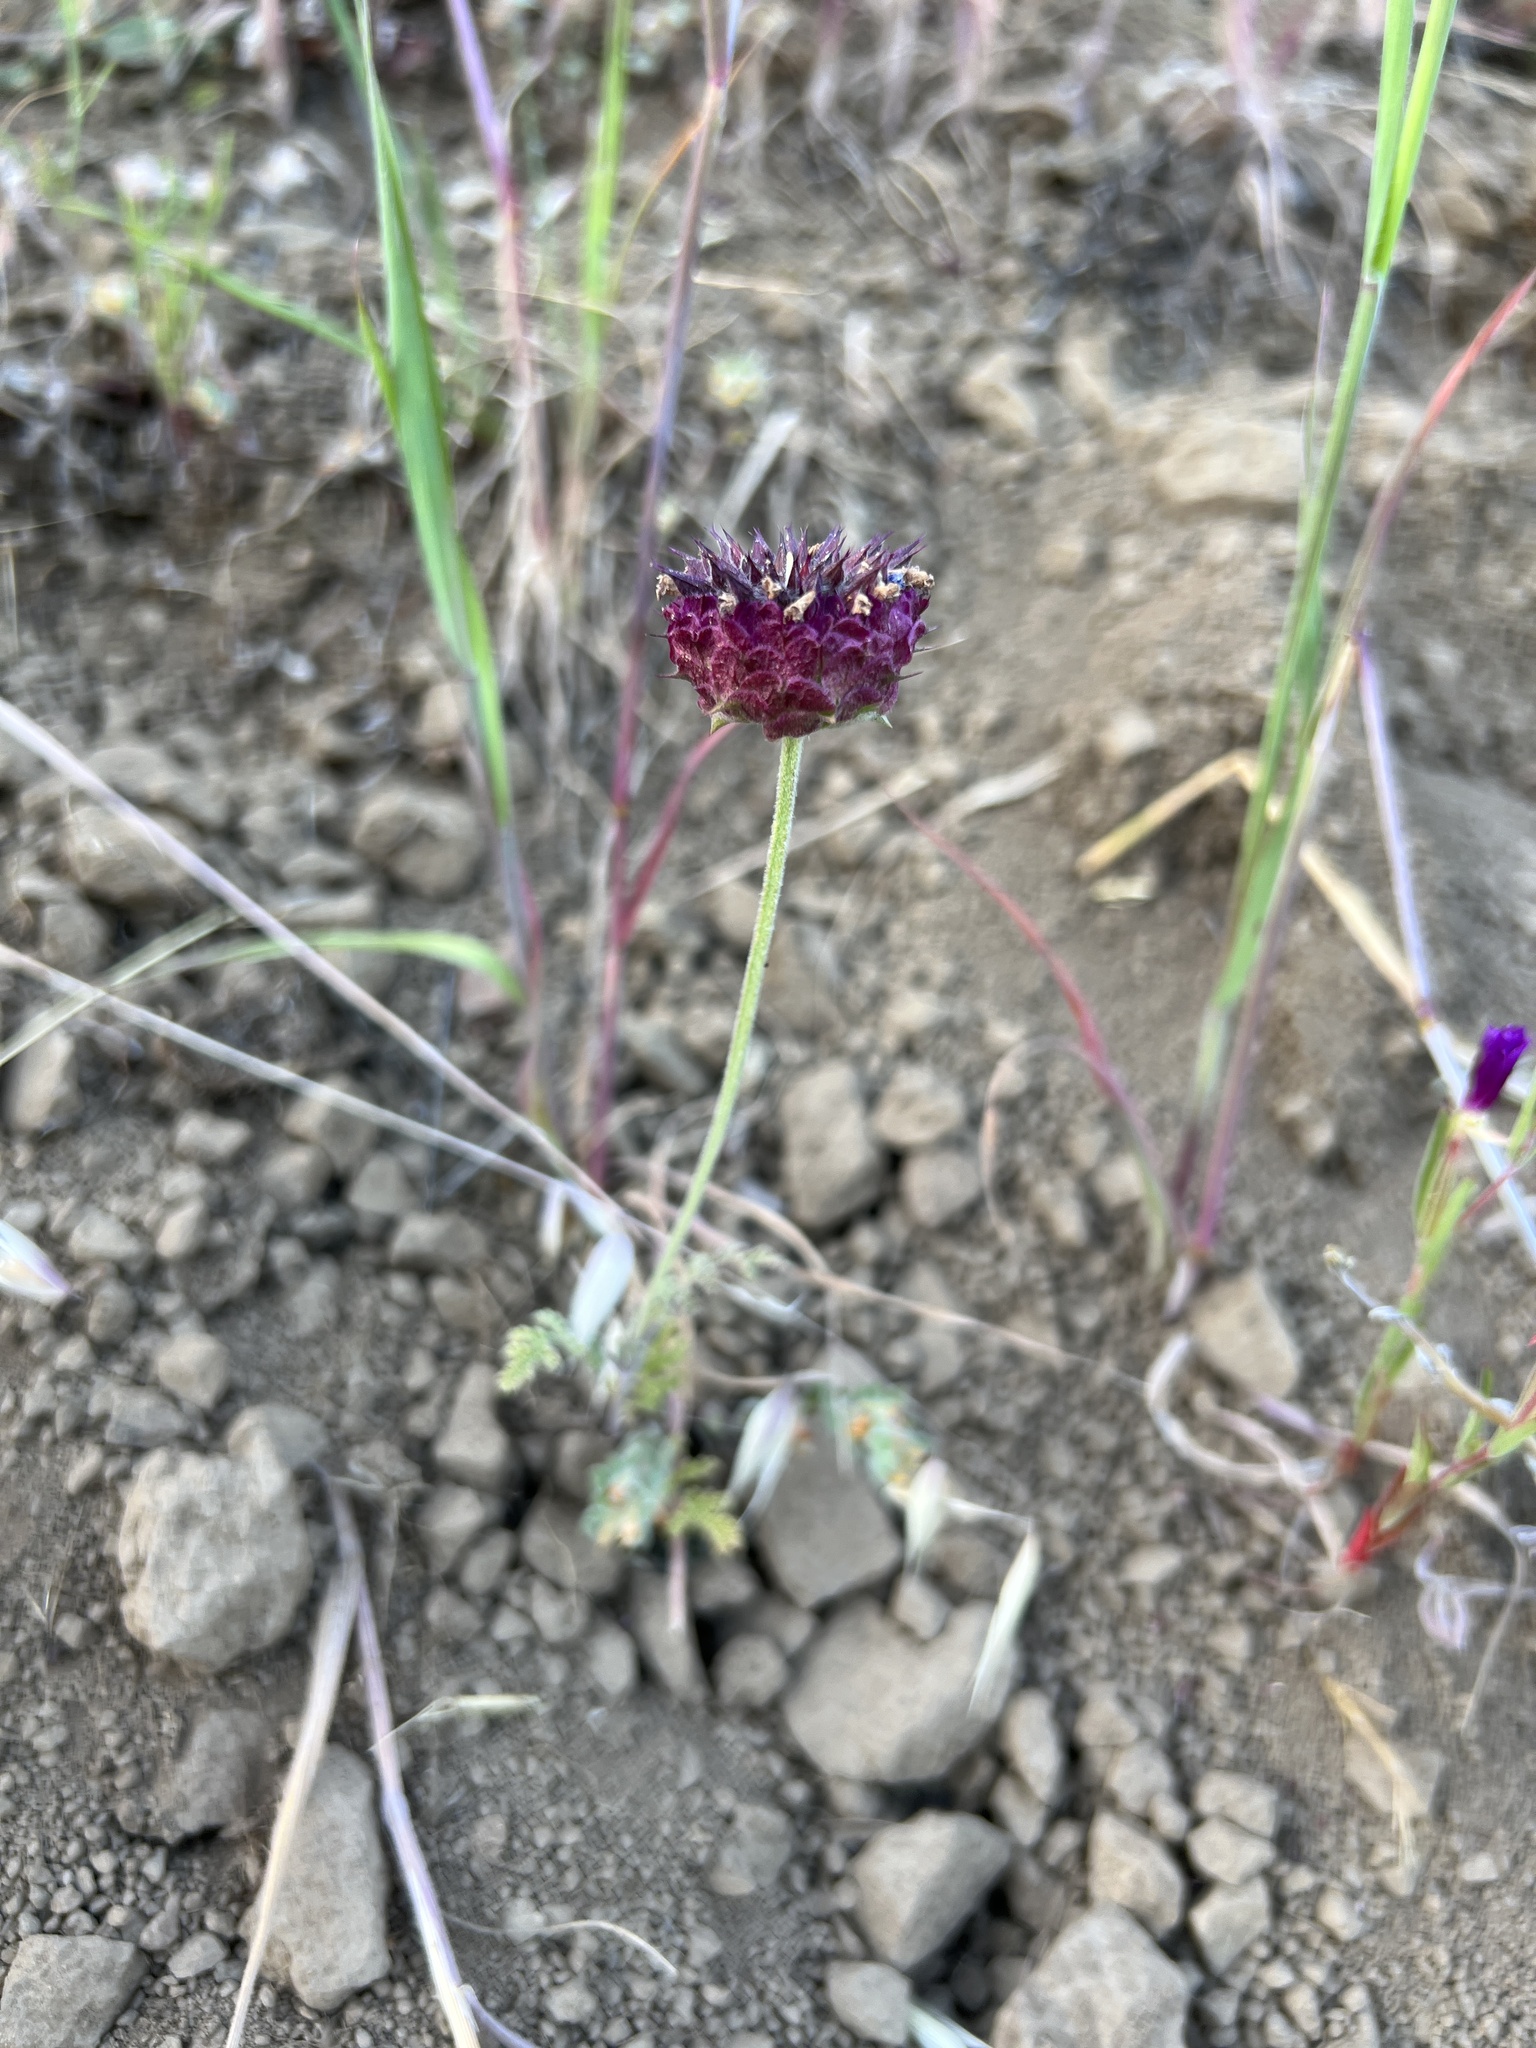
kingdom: Plantae
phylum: Tracheophyta
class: Magnoliopsida
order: Lamiales
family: Lamiaceae
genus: Salvia
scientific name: Salvia columbariae
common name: Chia
